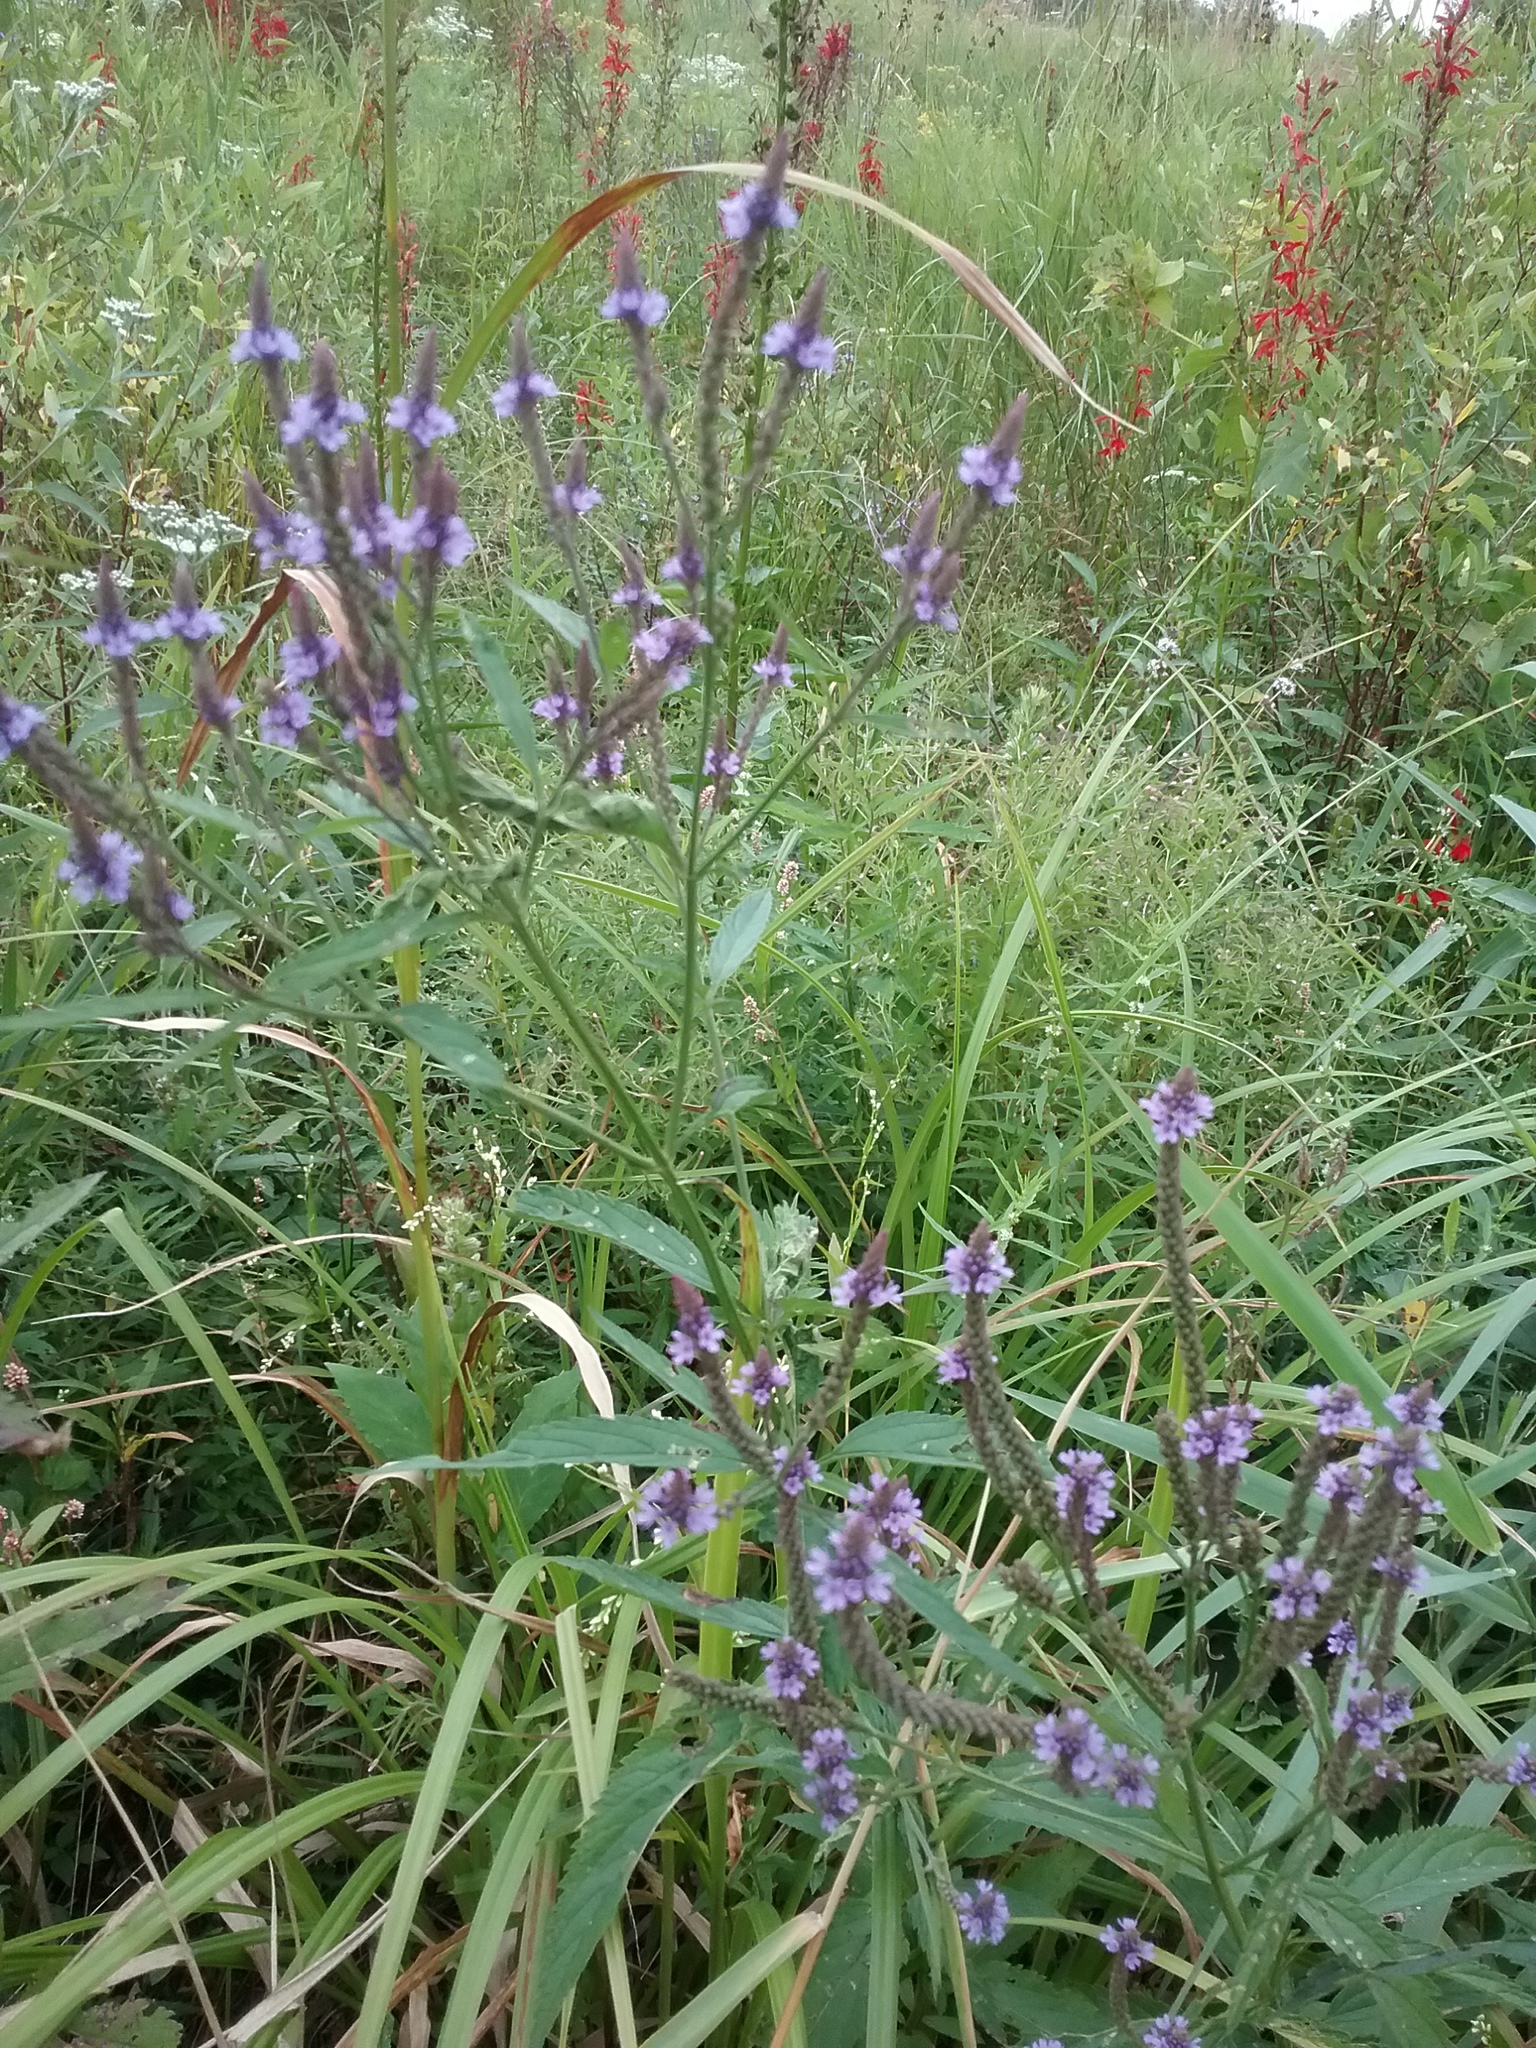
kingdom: Plantae
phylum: Tracheophyta
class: Magnoliopsida
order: Lamiales
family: Verbenaceae
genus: Verbena
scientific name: Verbena hastata
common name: American blue vervain
